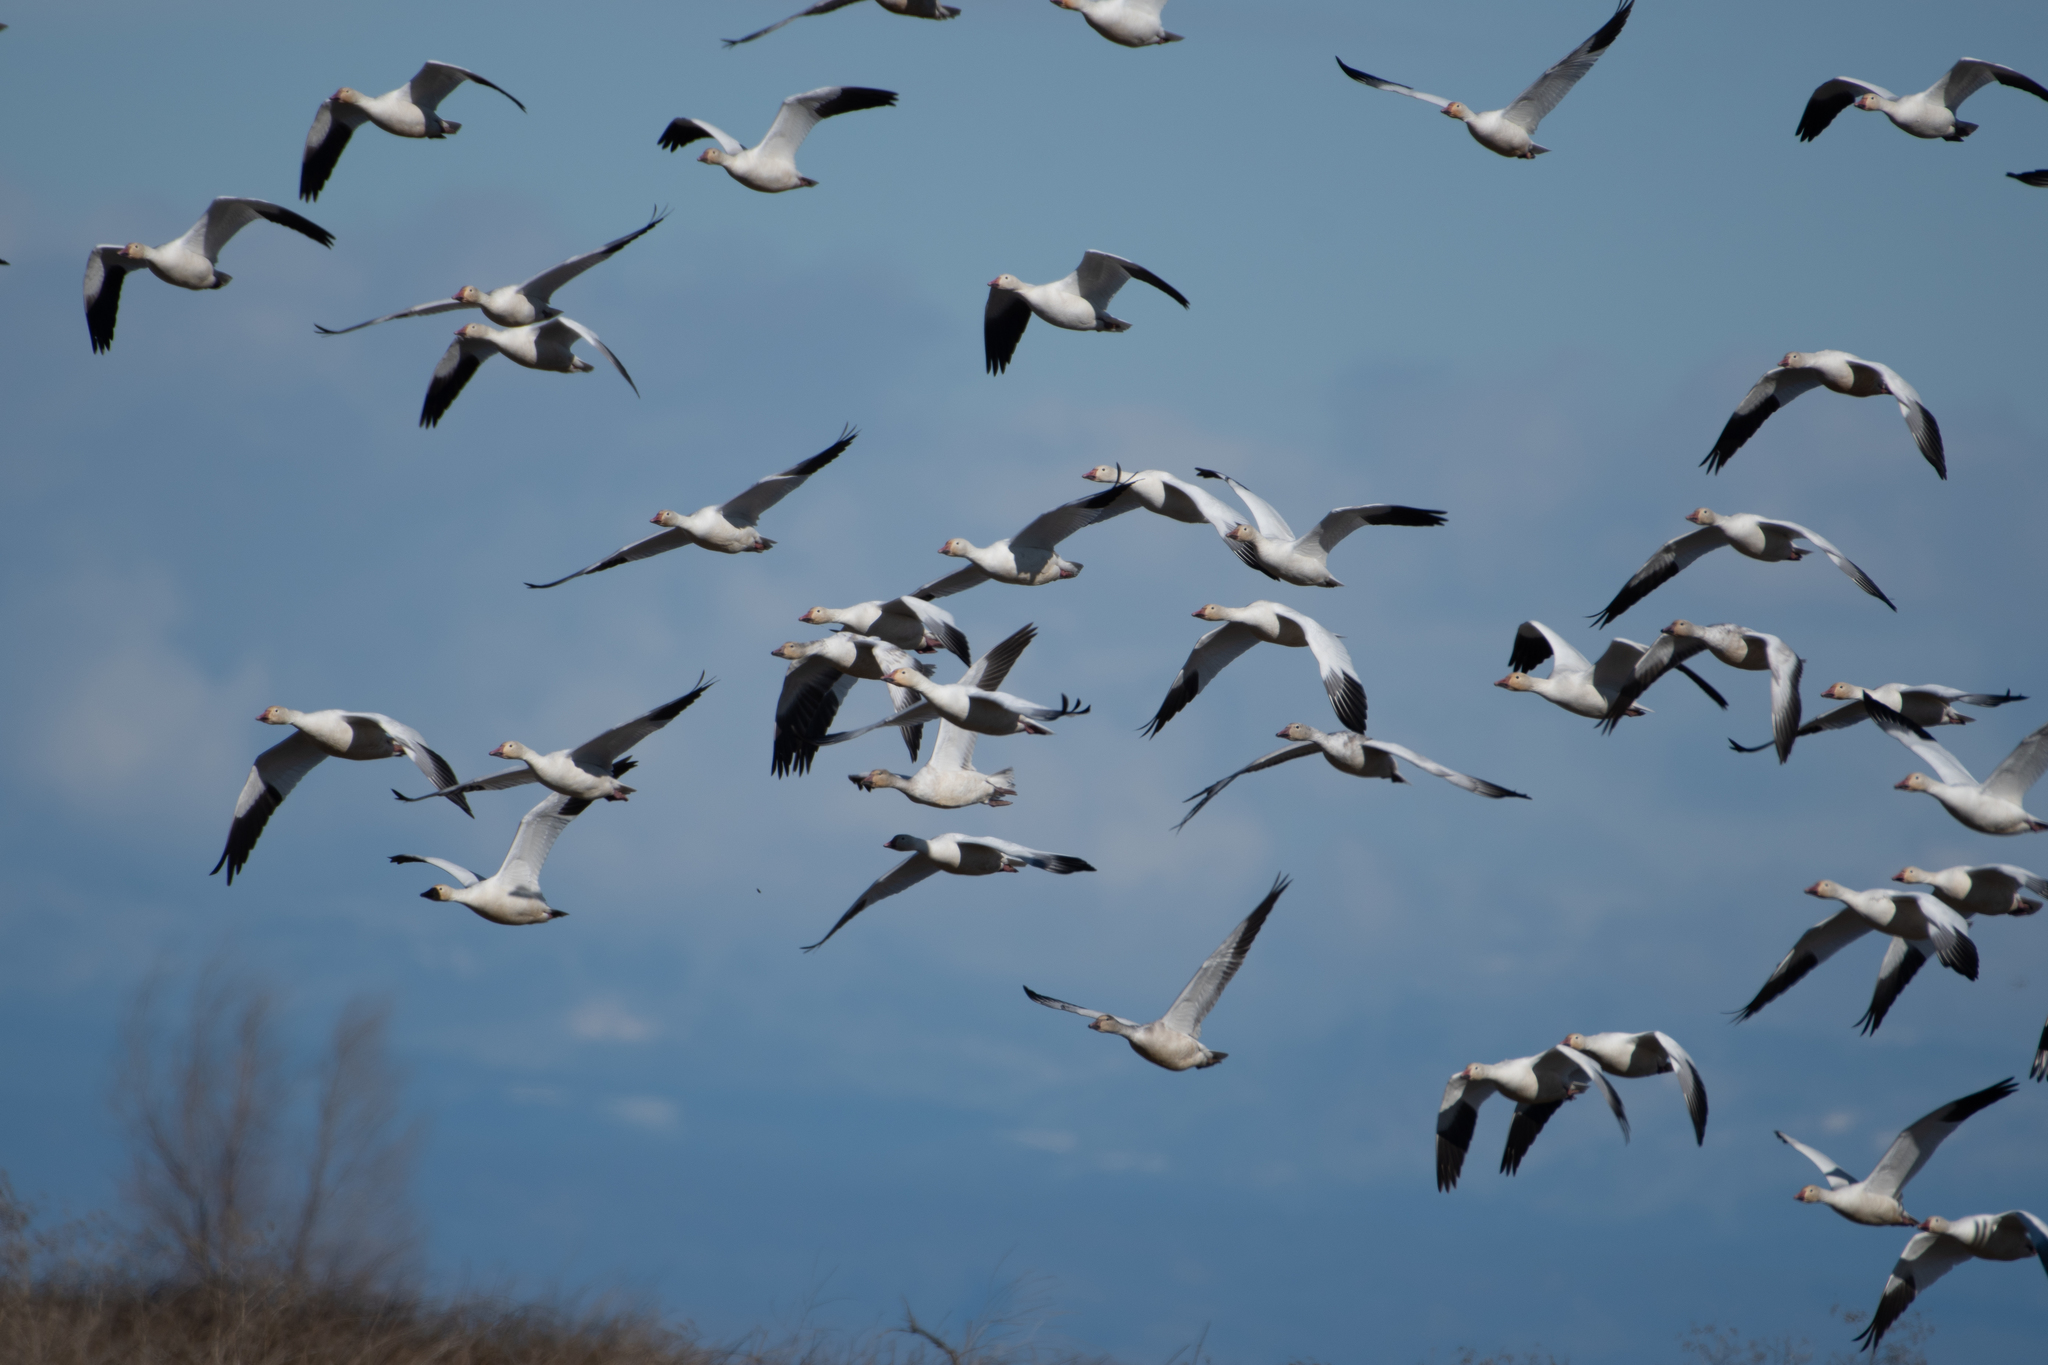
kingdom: Animalia
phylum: Chordata
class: Aves
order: Anseriformes
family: Anatidae
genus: Anser
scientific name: Anser caerulescens
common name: Snow goose
